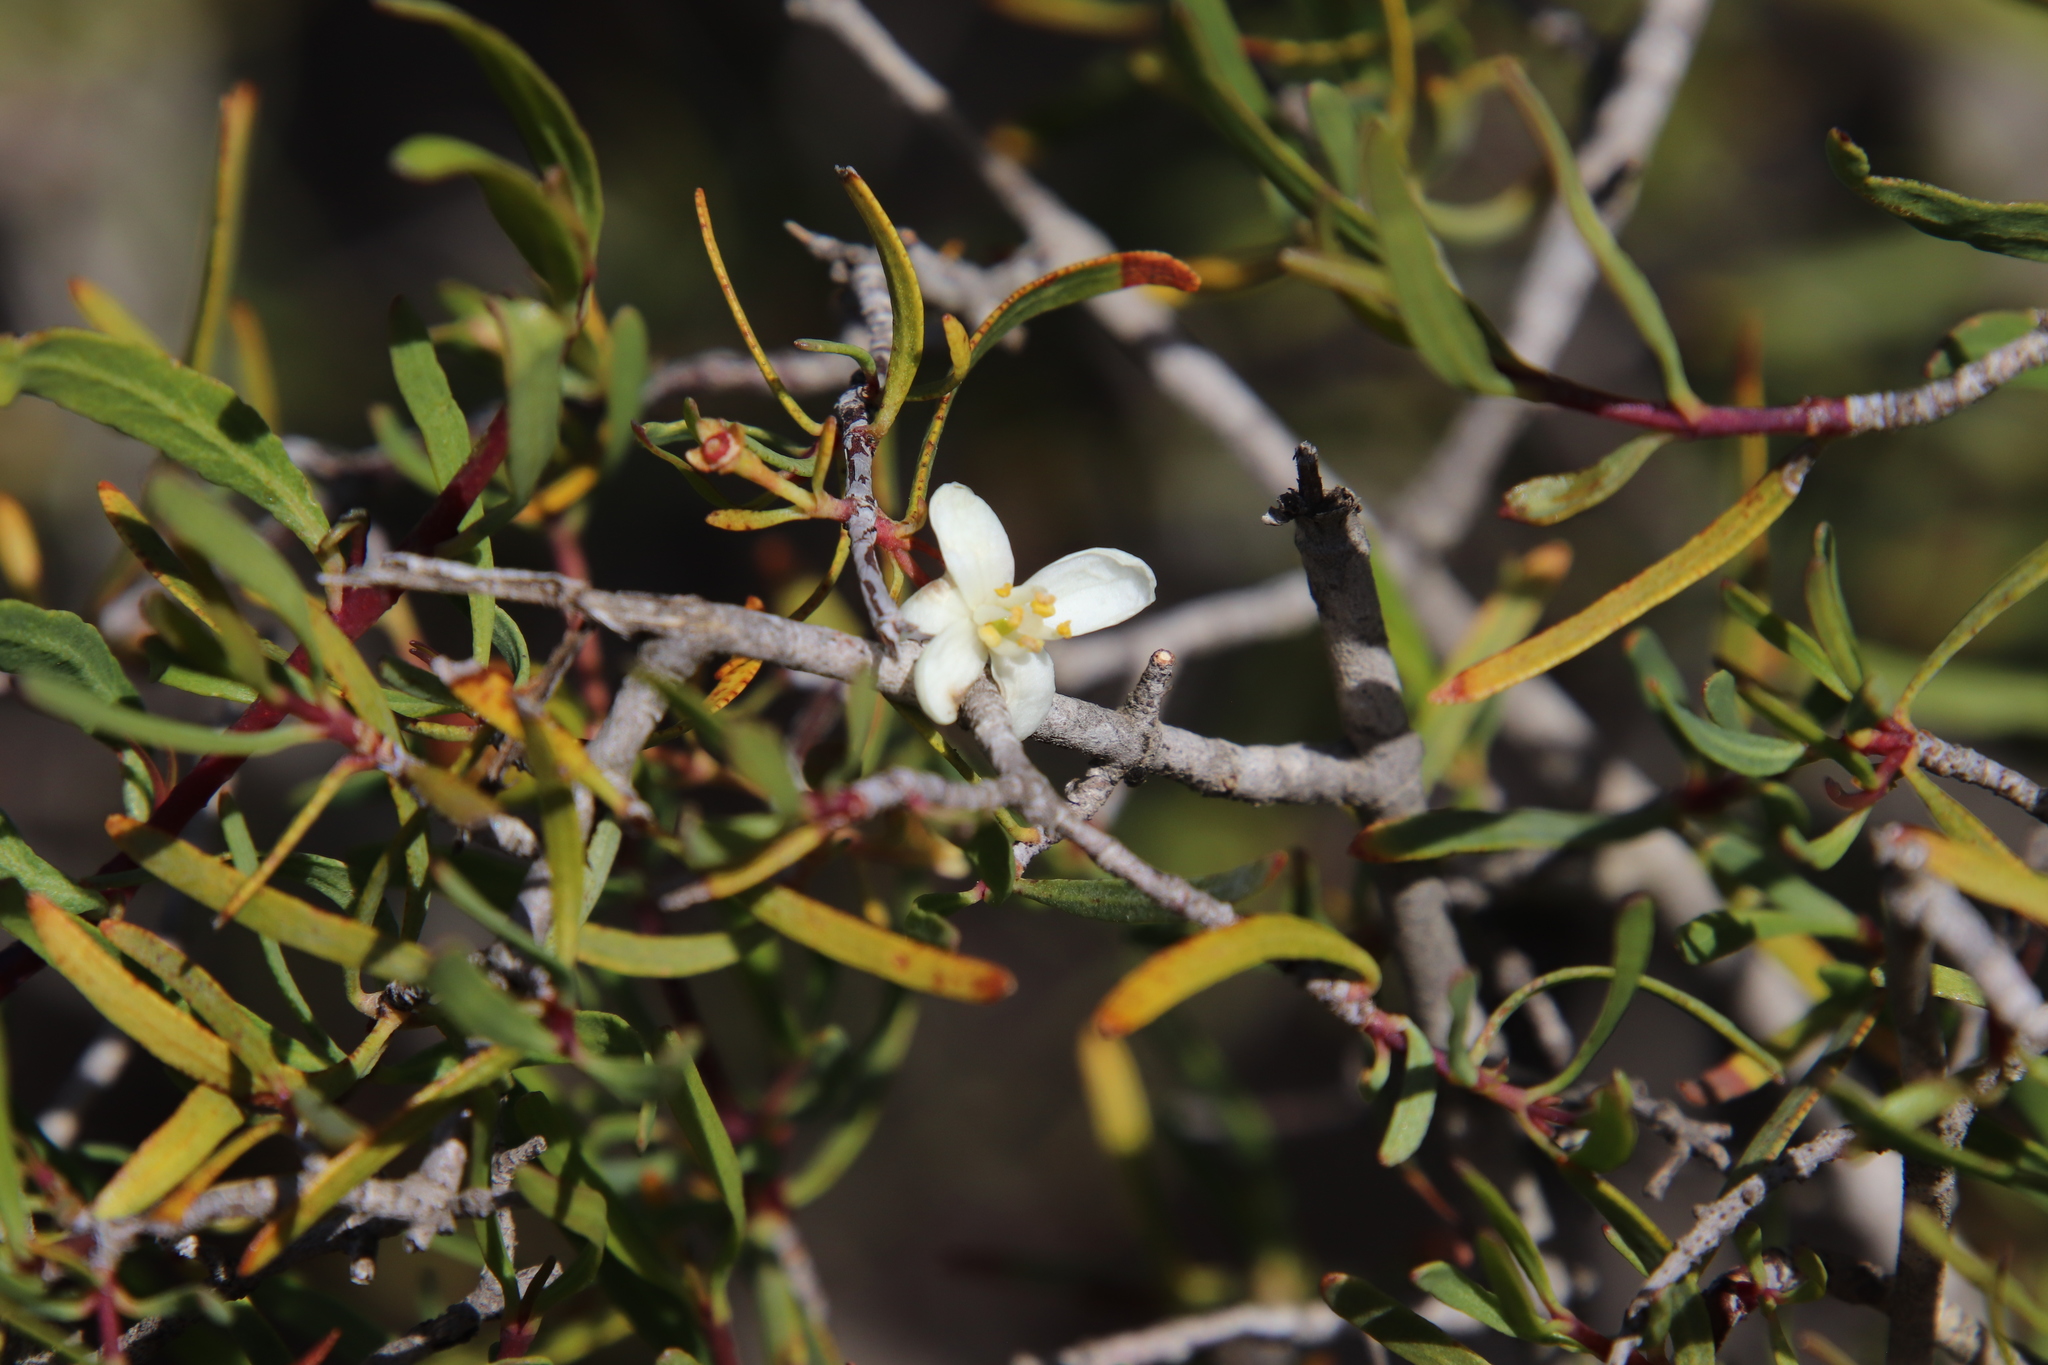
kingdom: Plantae
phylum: Tracheophyta
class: Magnoliopsida
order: Sapindales
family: Rutaceae
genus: Cneoridium
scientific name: Cneoridium dumosum
